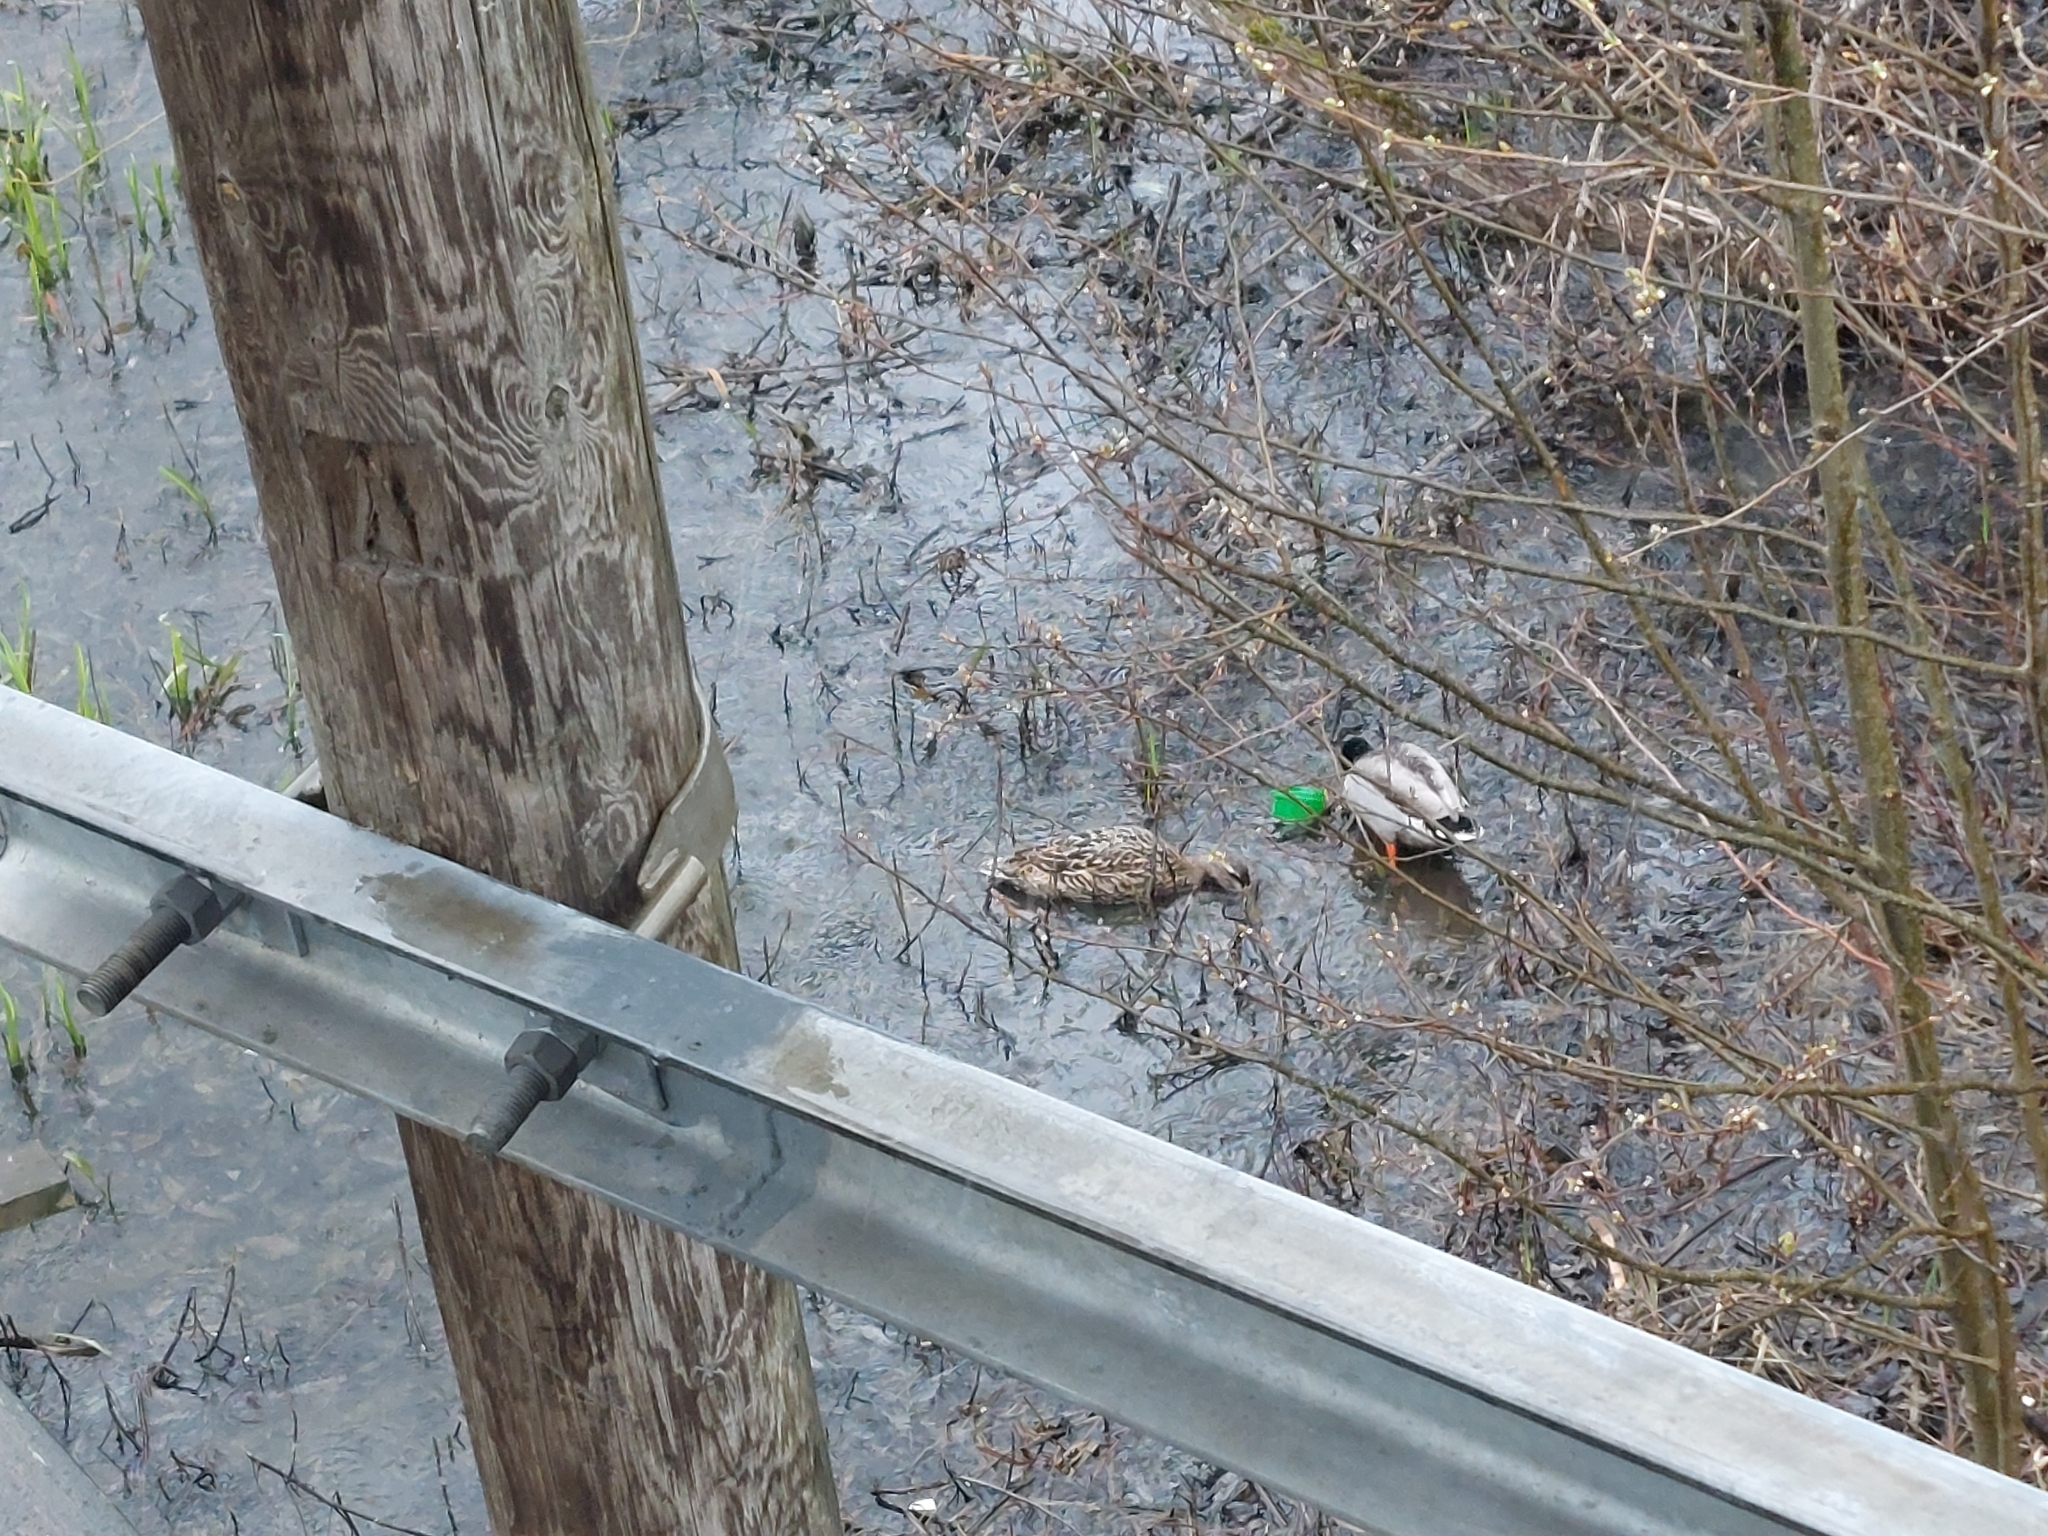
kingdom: Animalia
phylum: Chordata
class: Aves
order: Anseriformes
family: Anatidae
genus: Anas
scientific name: Anas platyrhynchos
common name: Mallard
